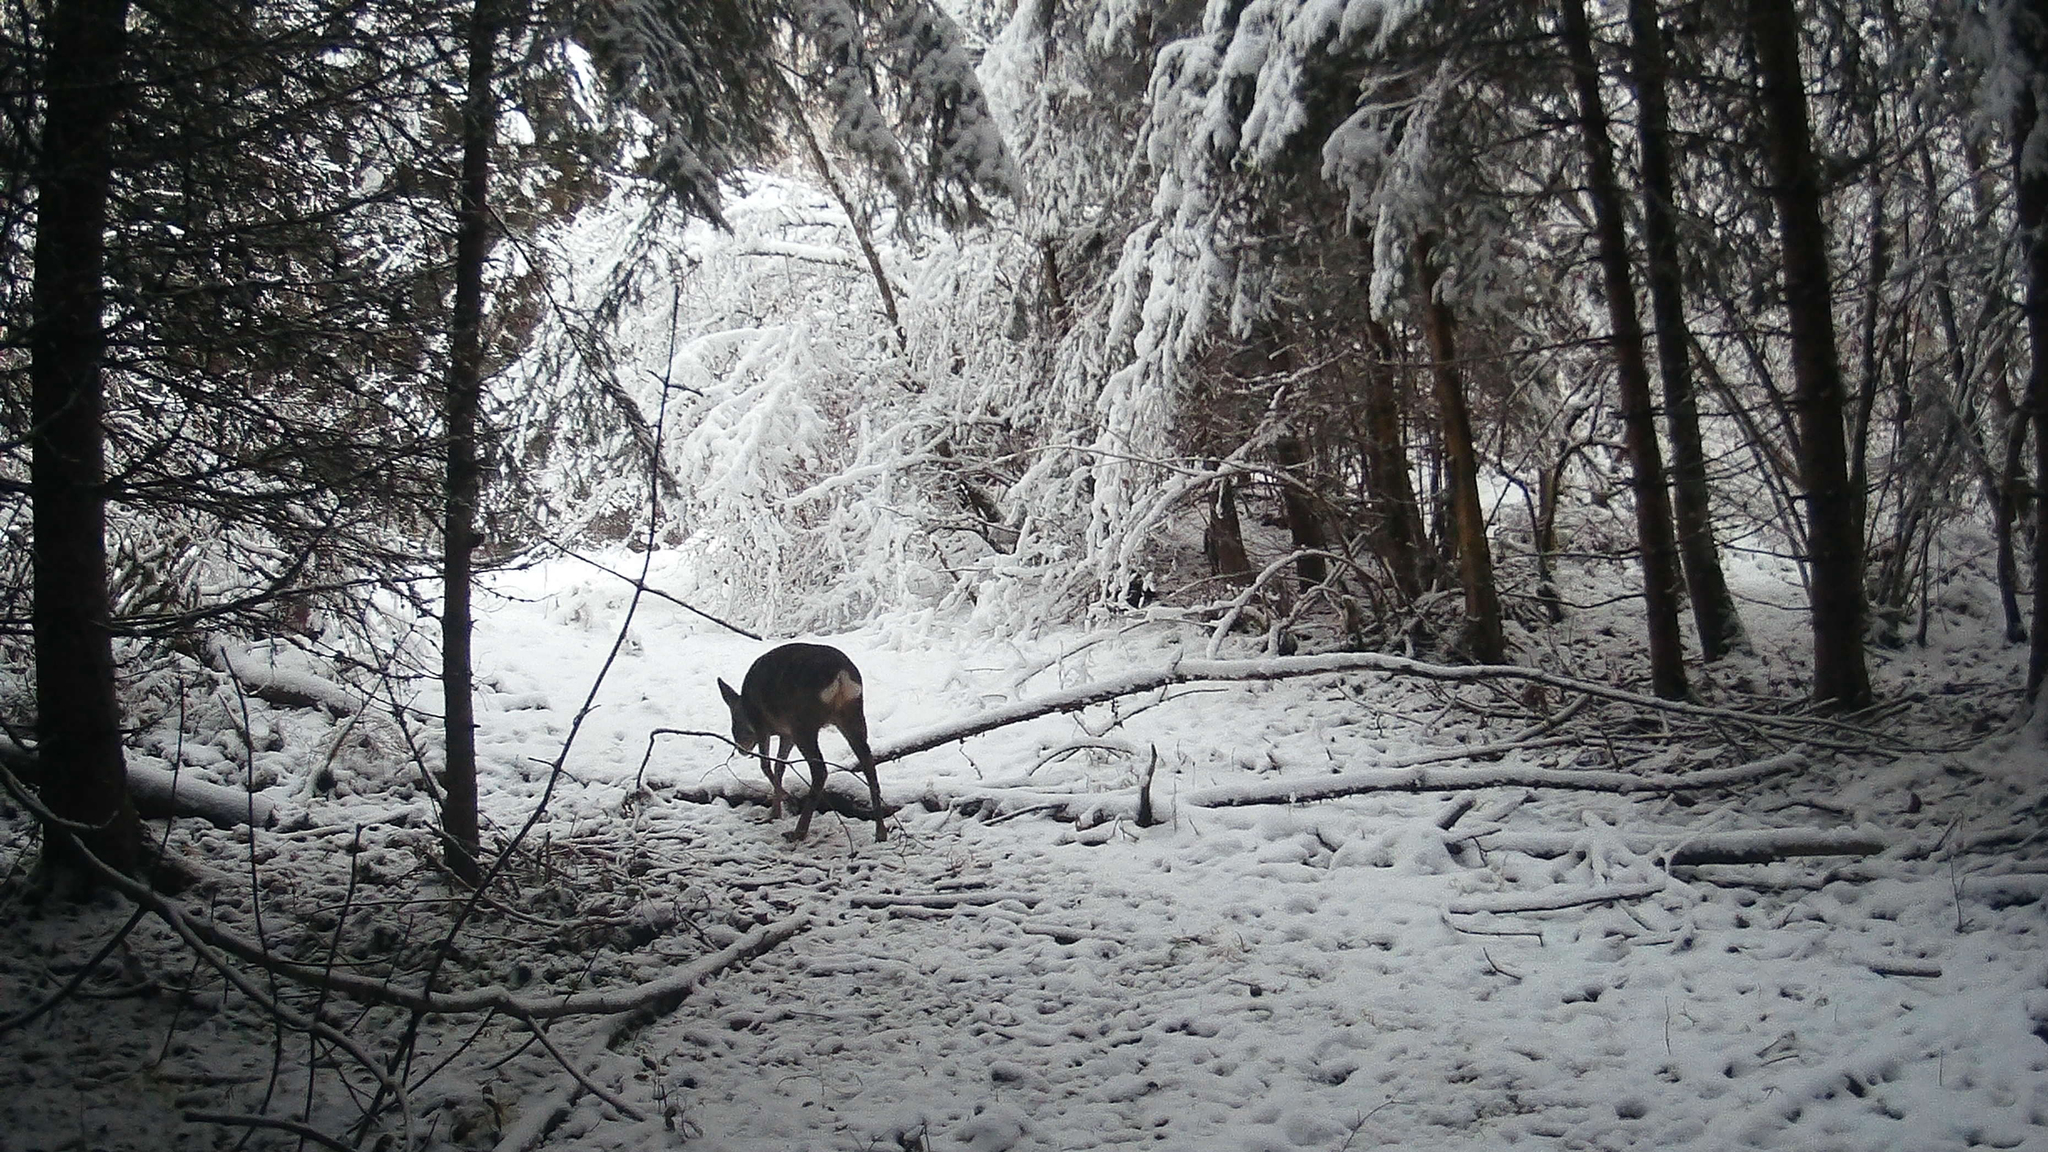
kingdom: Animalia
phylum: Chordata
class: Mammalia
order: Artiodactyla
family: Cervidae
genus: Capreolus
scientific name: Capreolus capreolus
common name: Western roe deer
